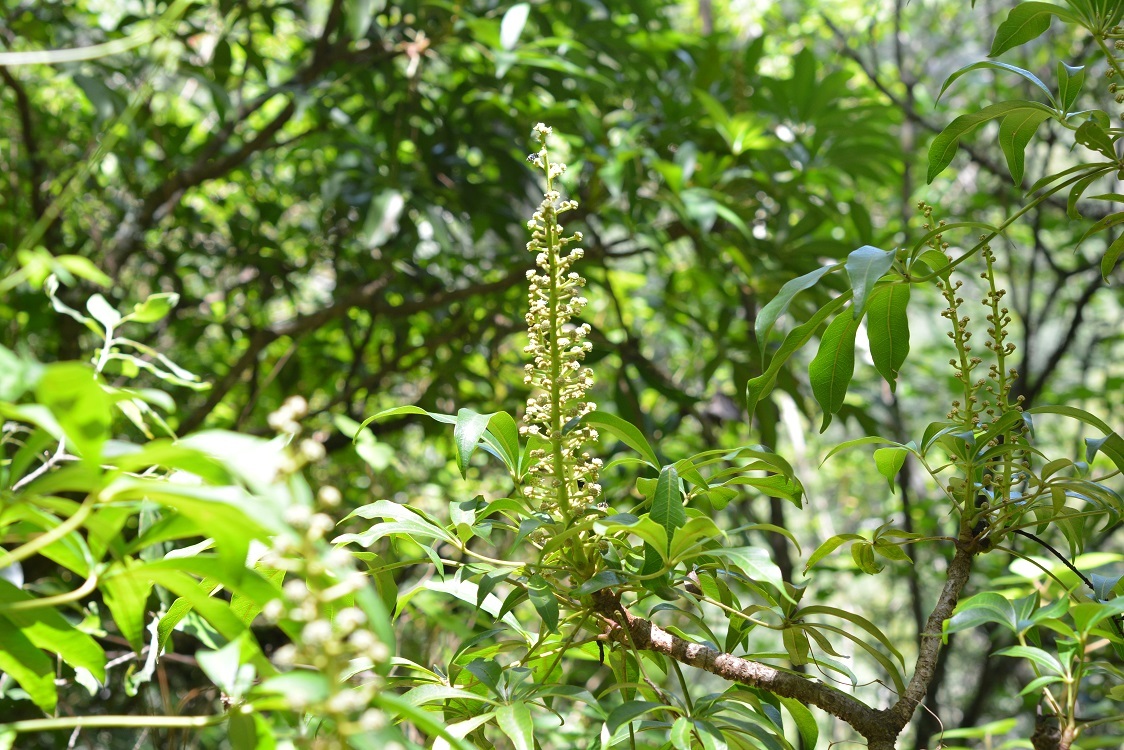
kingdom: Plantae
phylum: Tracheophyta
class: Magnoliopsida
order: Apiales
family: Araliaceae
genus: Oreopanax
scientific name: Oreopanax xalapensis
